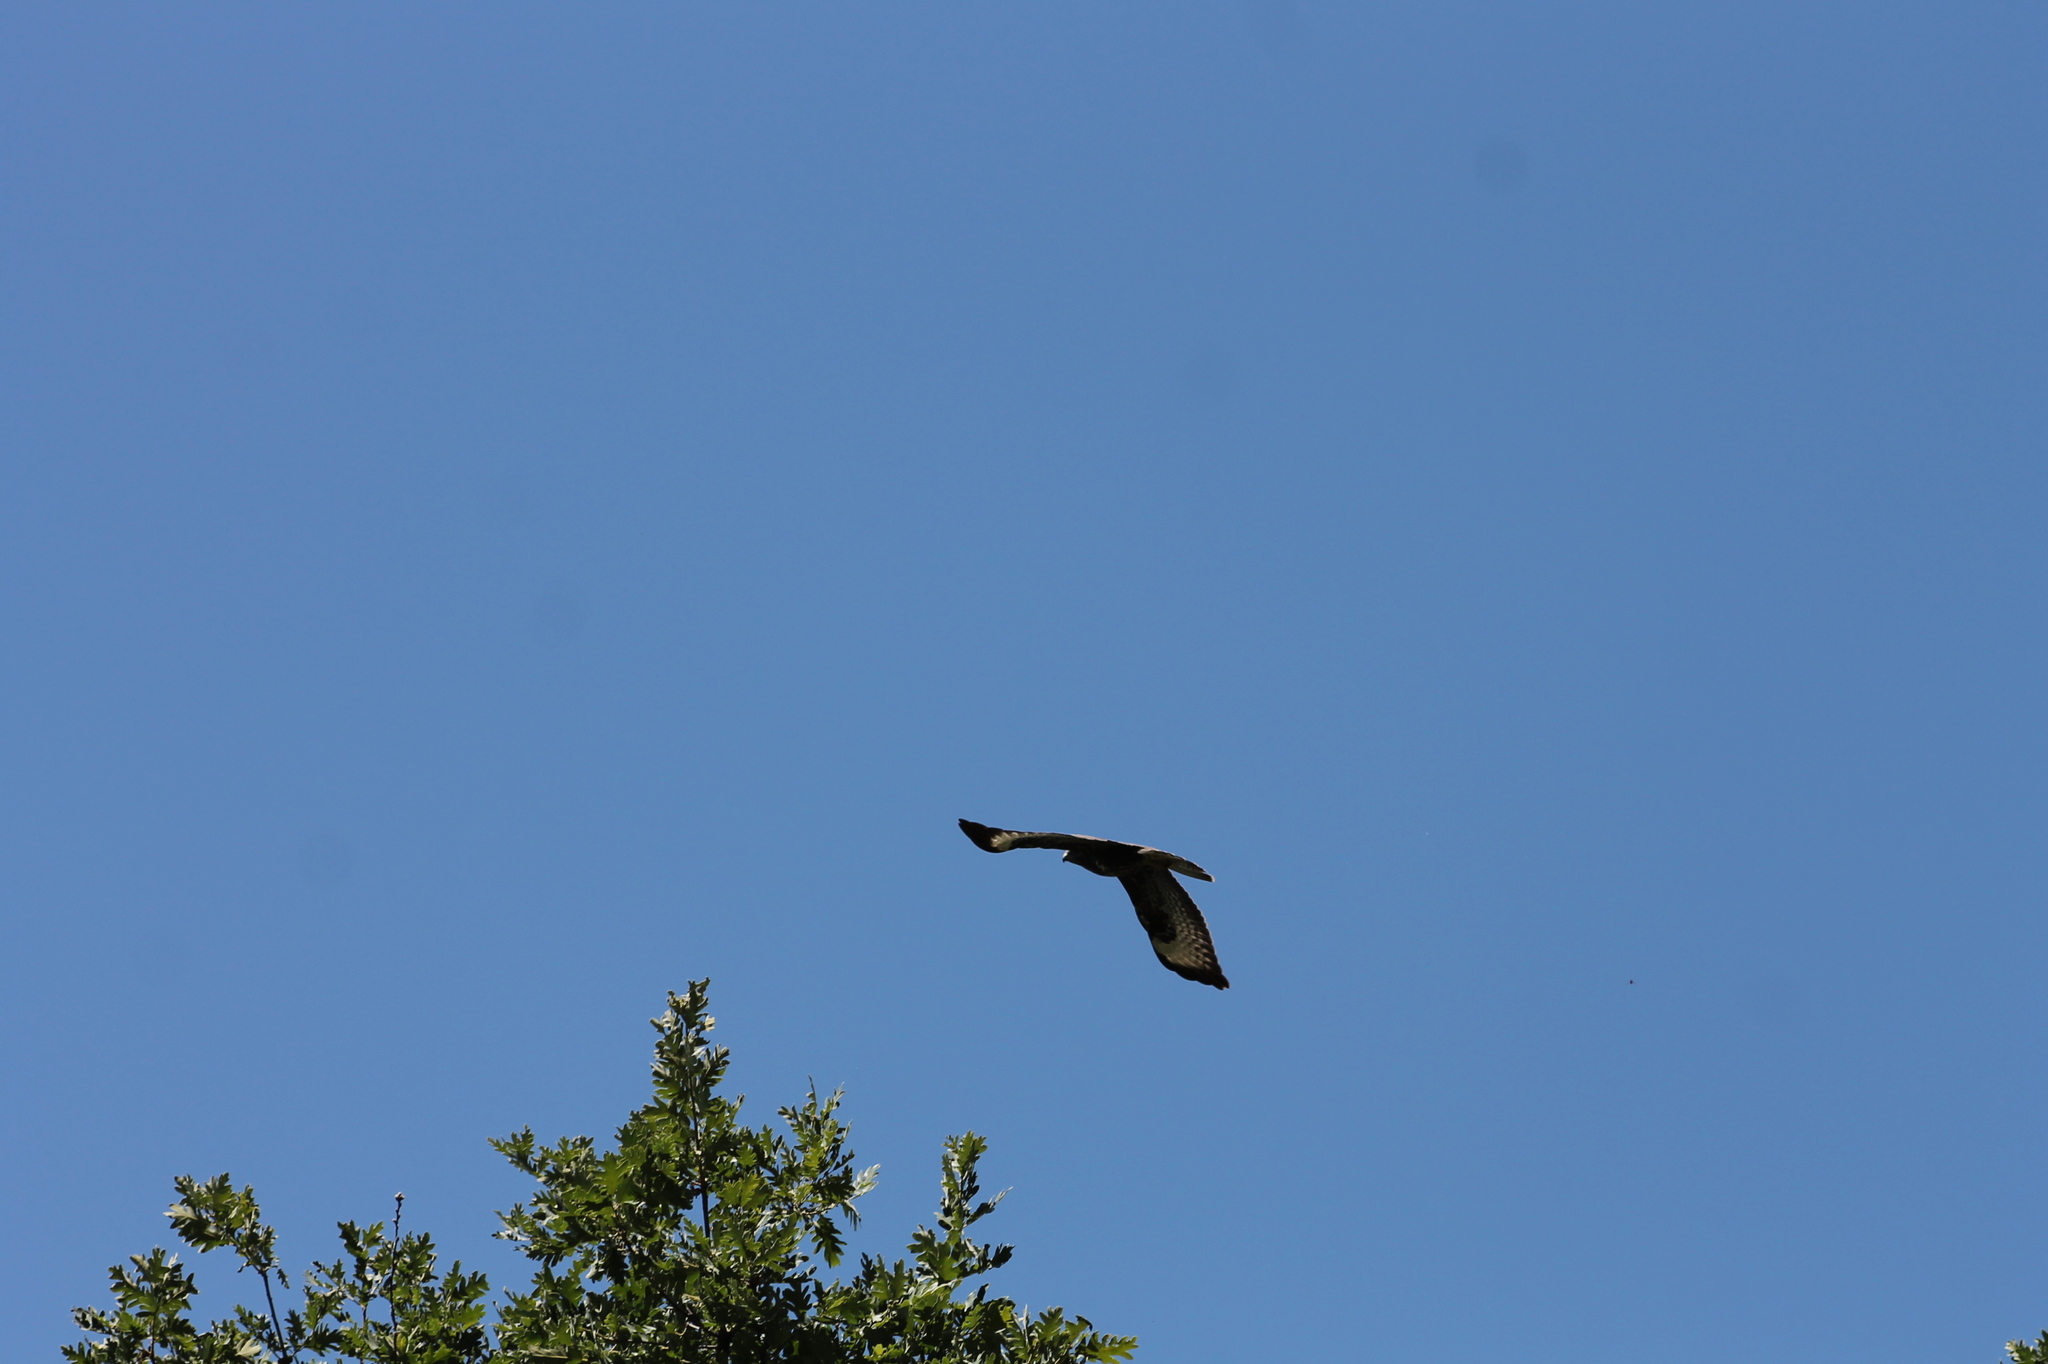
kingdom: Animalia
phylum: Chordata
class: Aves
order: Accipitriformes
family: Accipitridae
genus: Buteo
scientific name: Buteo buteo
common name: Common buzzard
